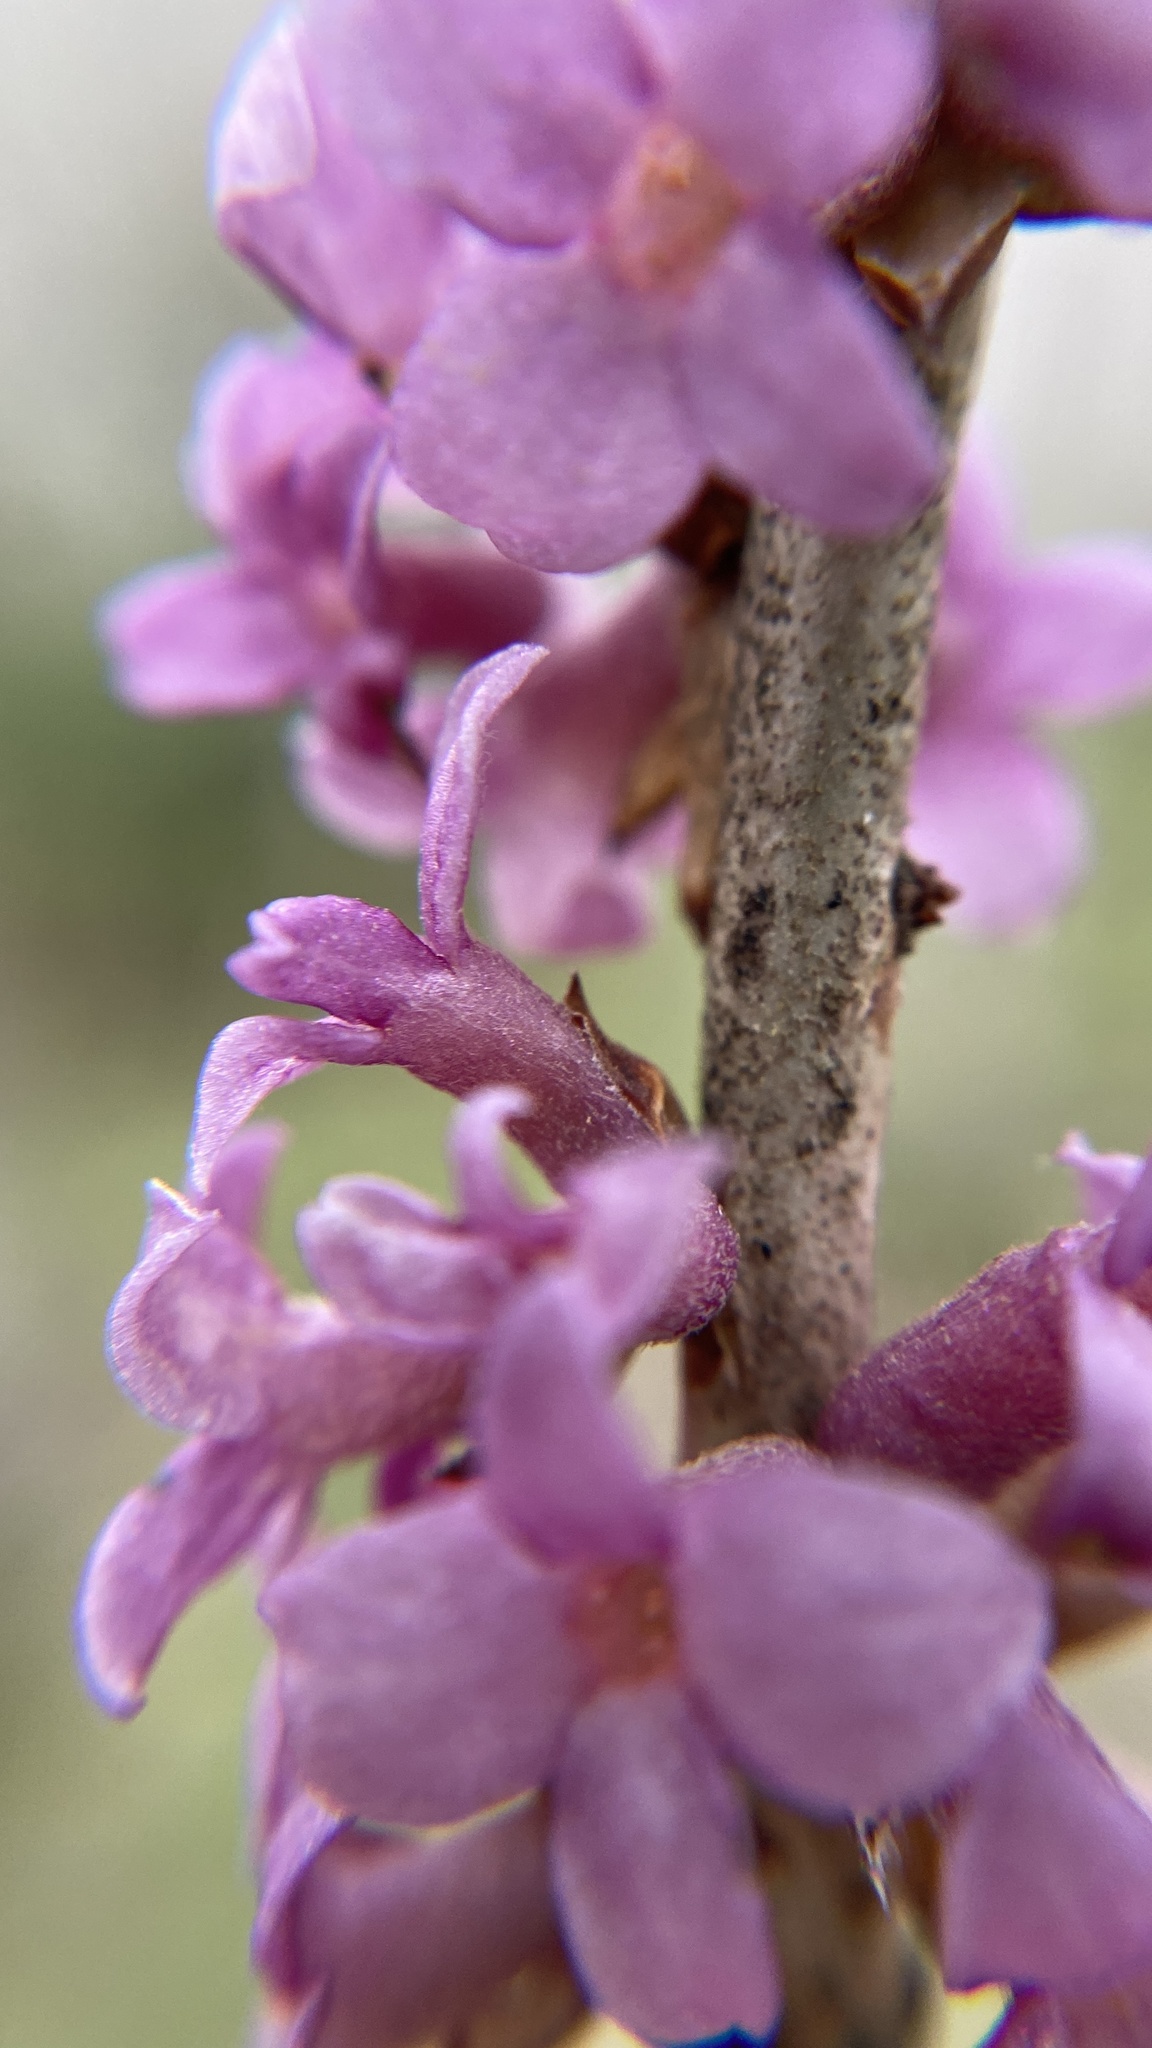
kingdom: Plantae
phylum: Tracheophyta
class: Magnoliopsida
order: Malvales
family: Thymelaeaceae
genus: Daphne
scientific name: Daphne mezereum
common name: Mezereon
